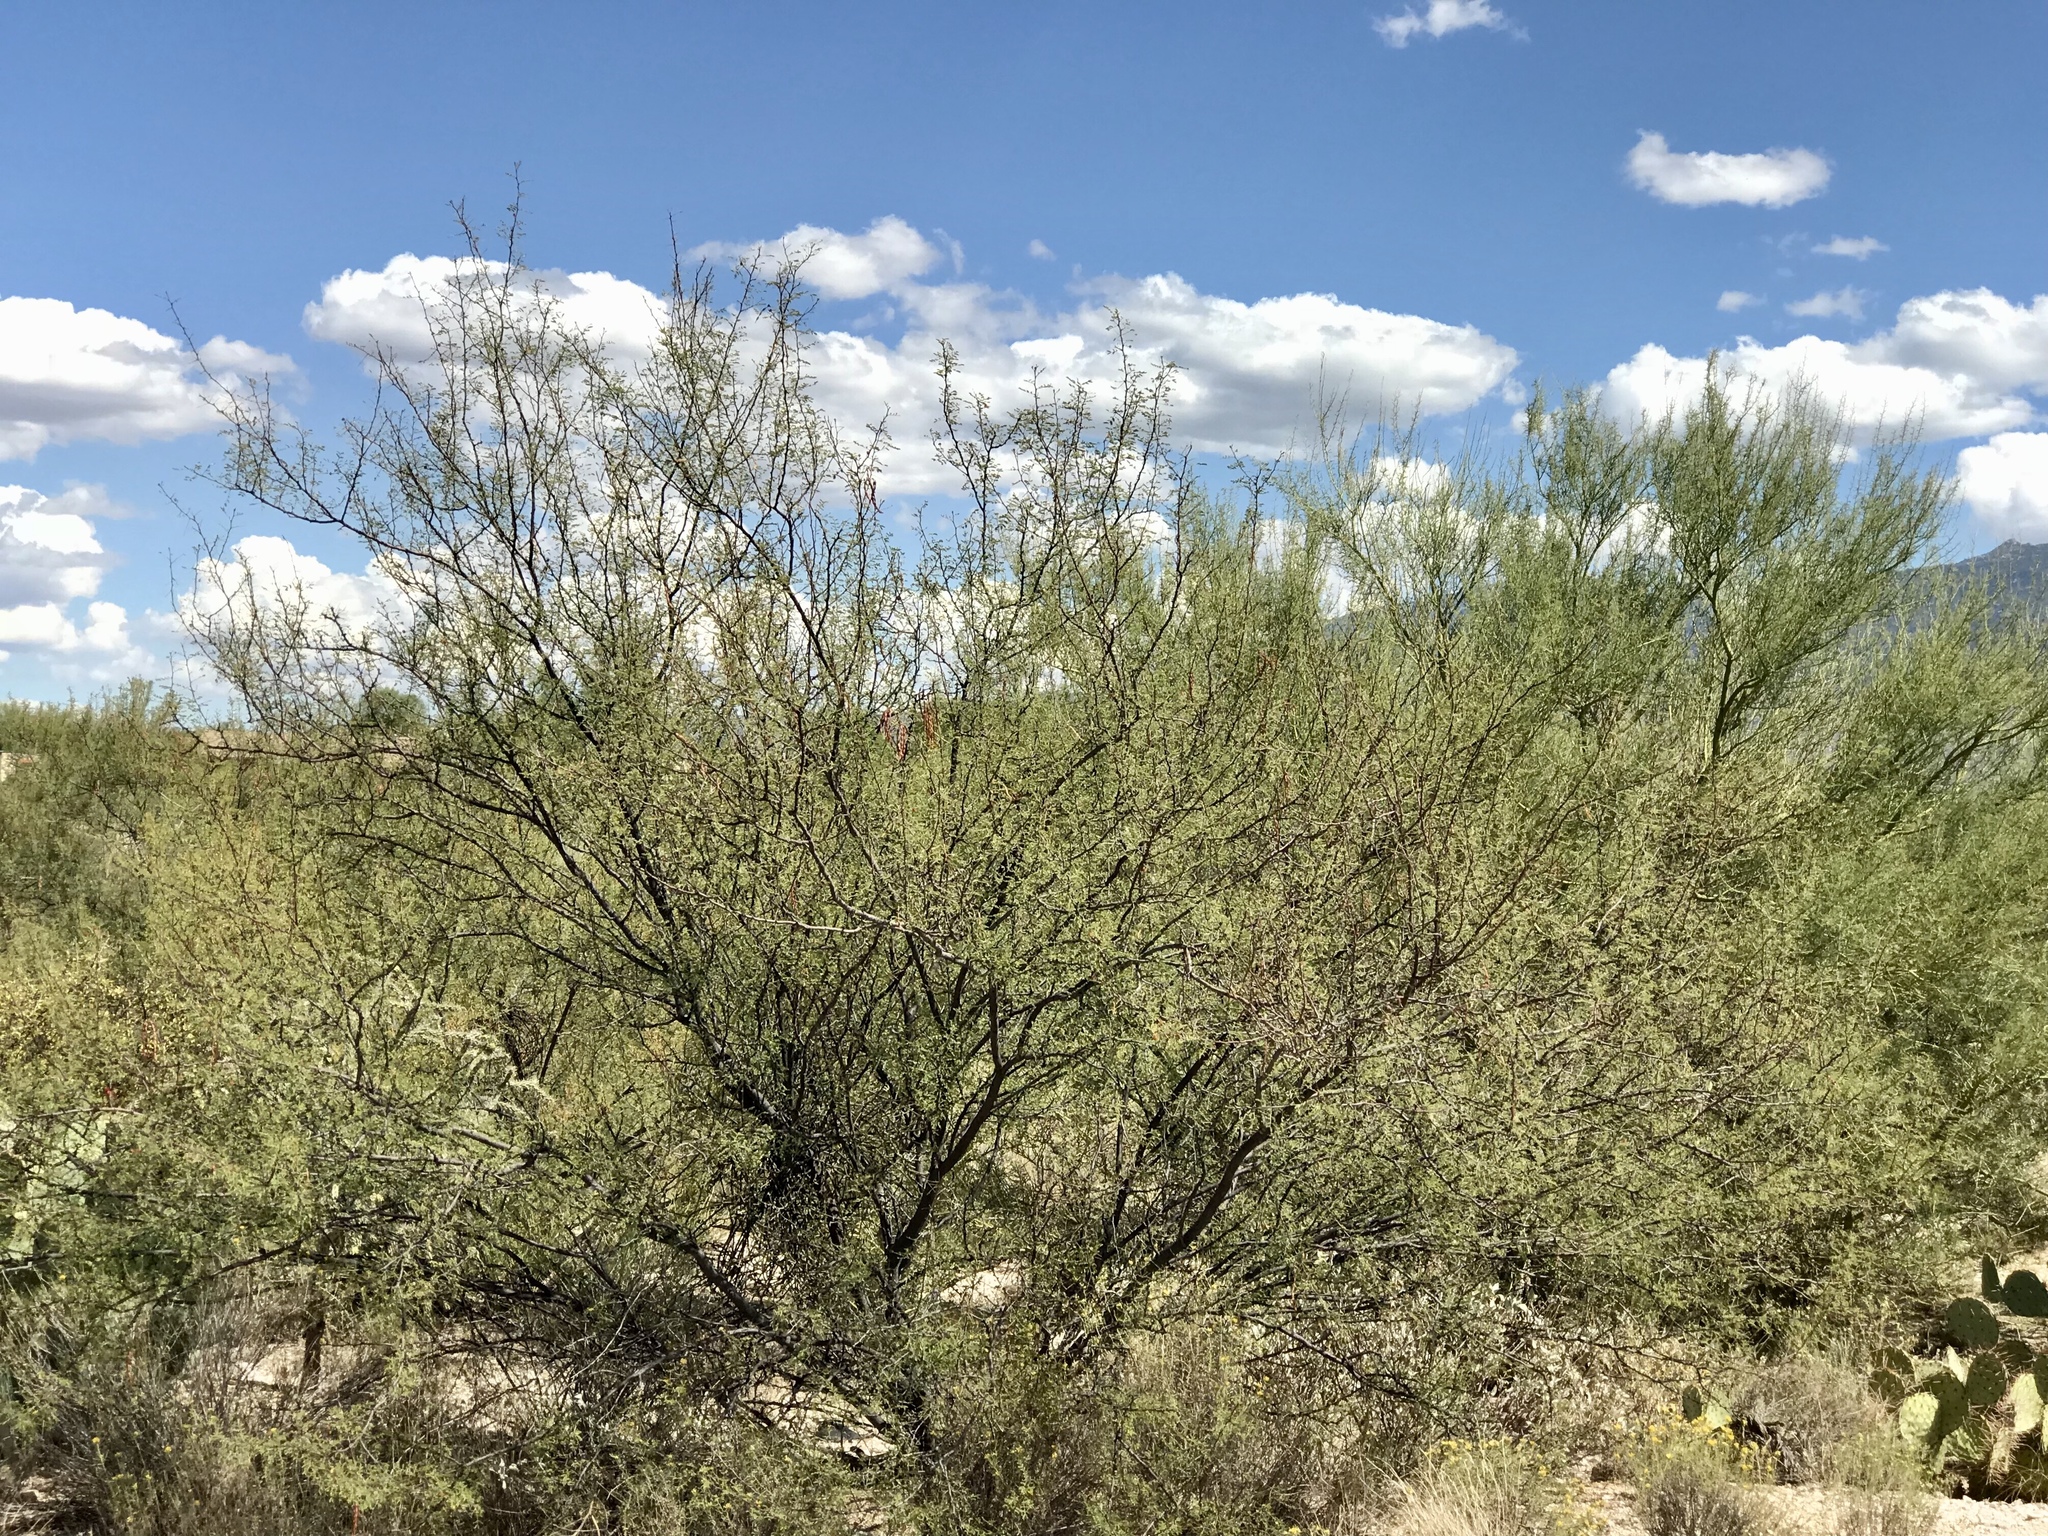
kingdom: Plantae
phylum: Tracheophyta
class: Magnoliopsida
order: Fabales
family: Fabaceae
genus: Vachellia
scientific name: Vachellia constricta
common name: Mescat acacia
